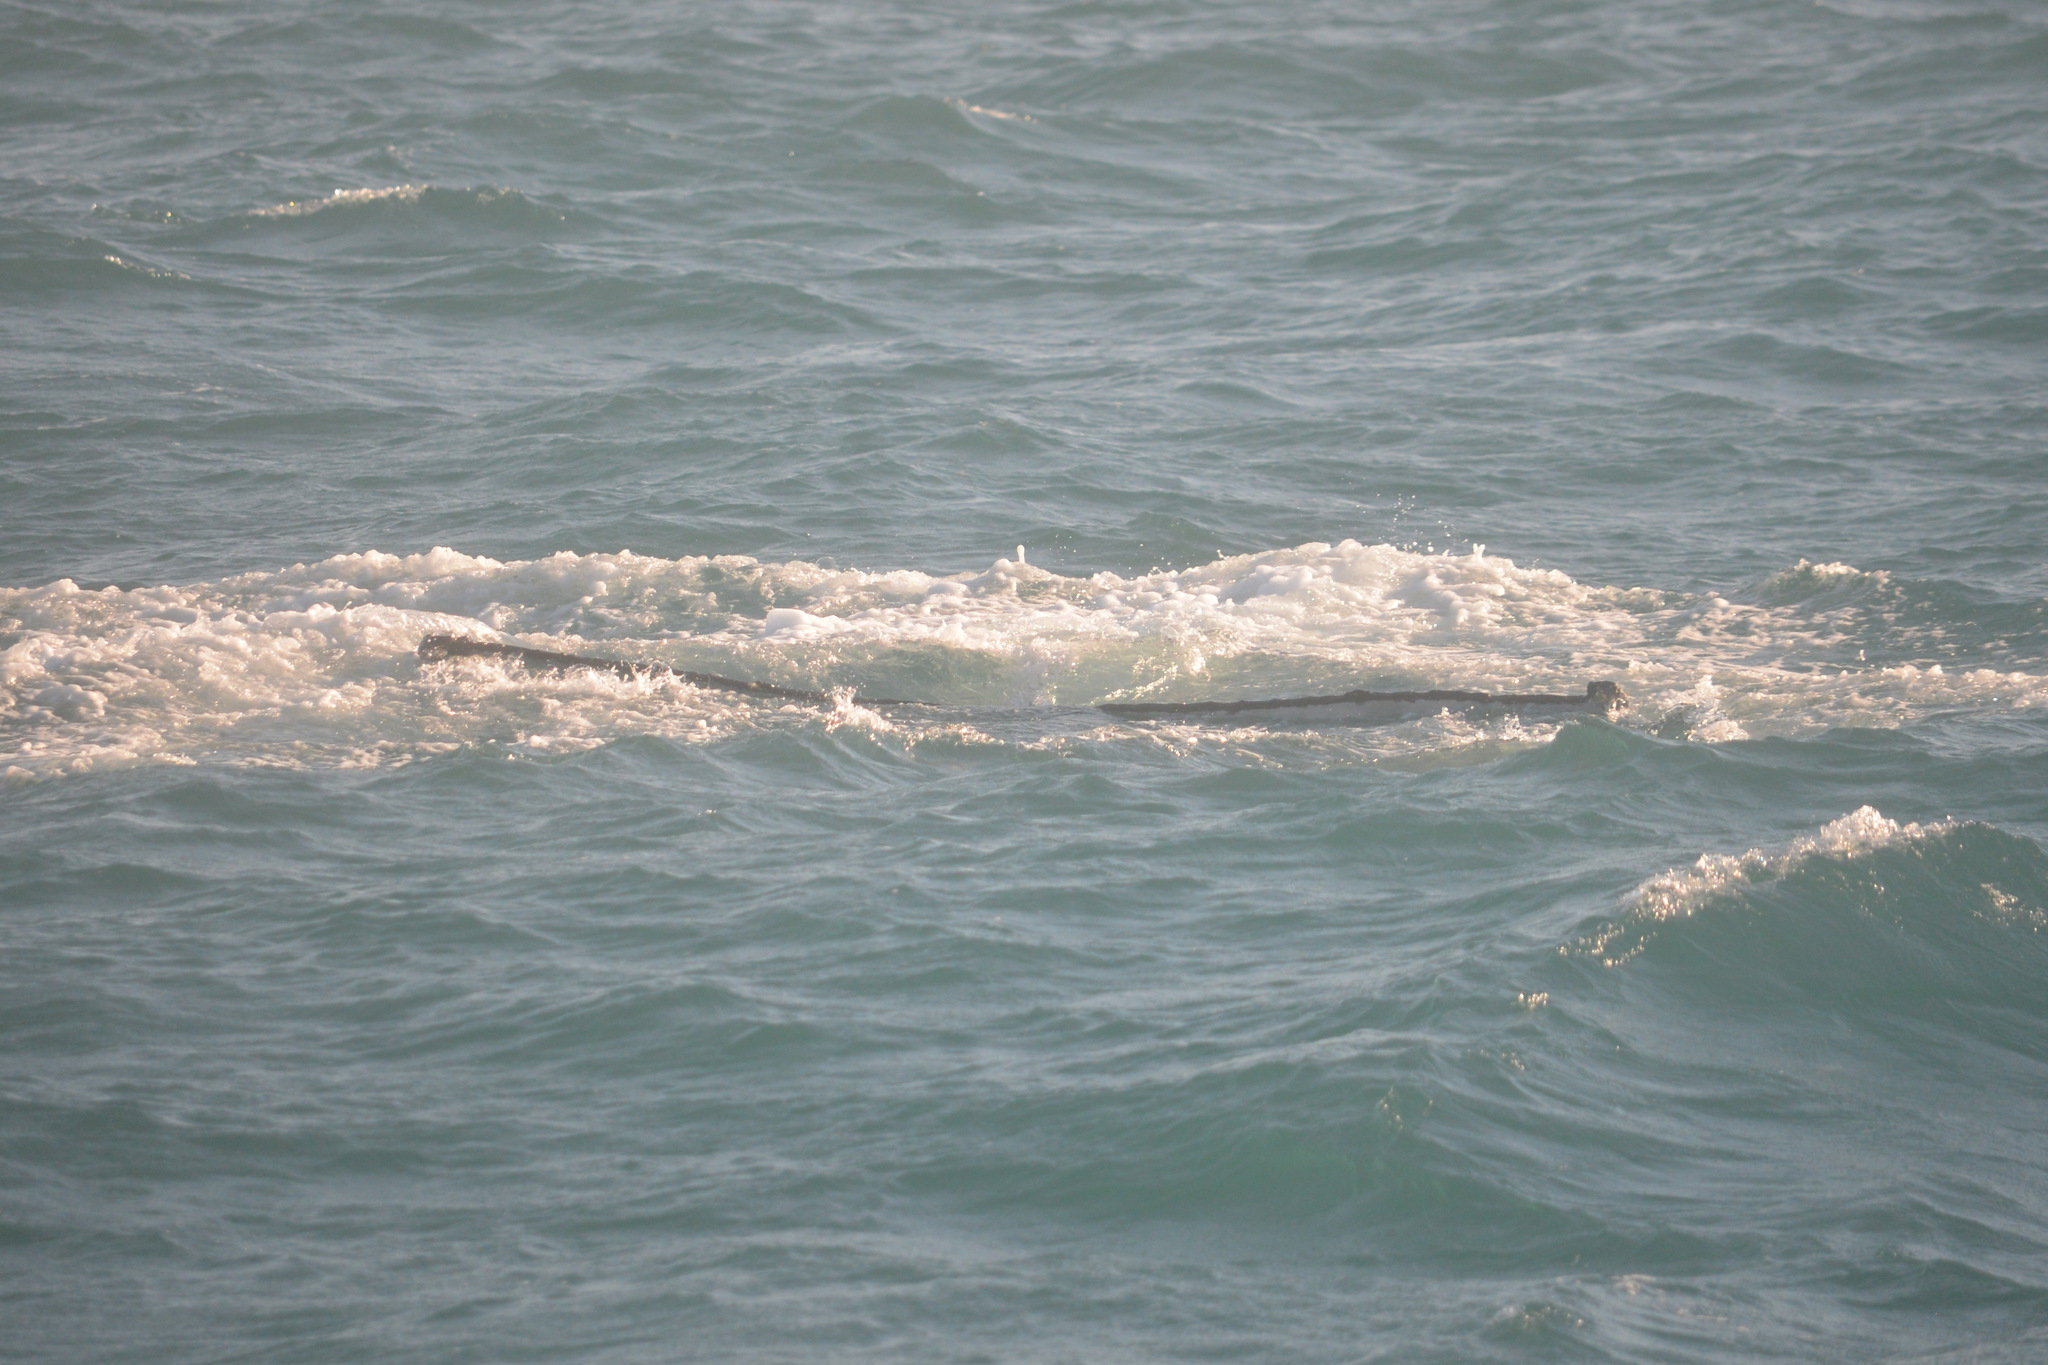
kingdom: Animalia
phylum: Chordata
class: Mammalia
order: Cetacea
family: Balaenopteridae
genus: Megaptera
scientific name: Megaptera novaeangliae
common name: Humpback whale
